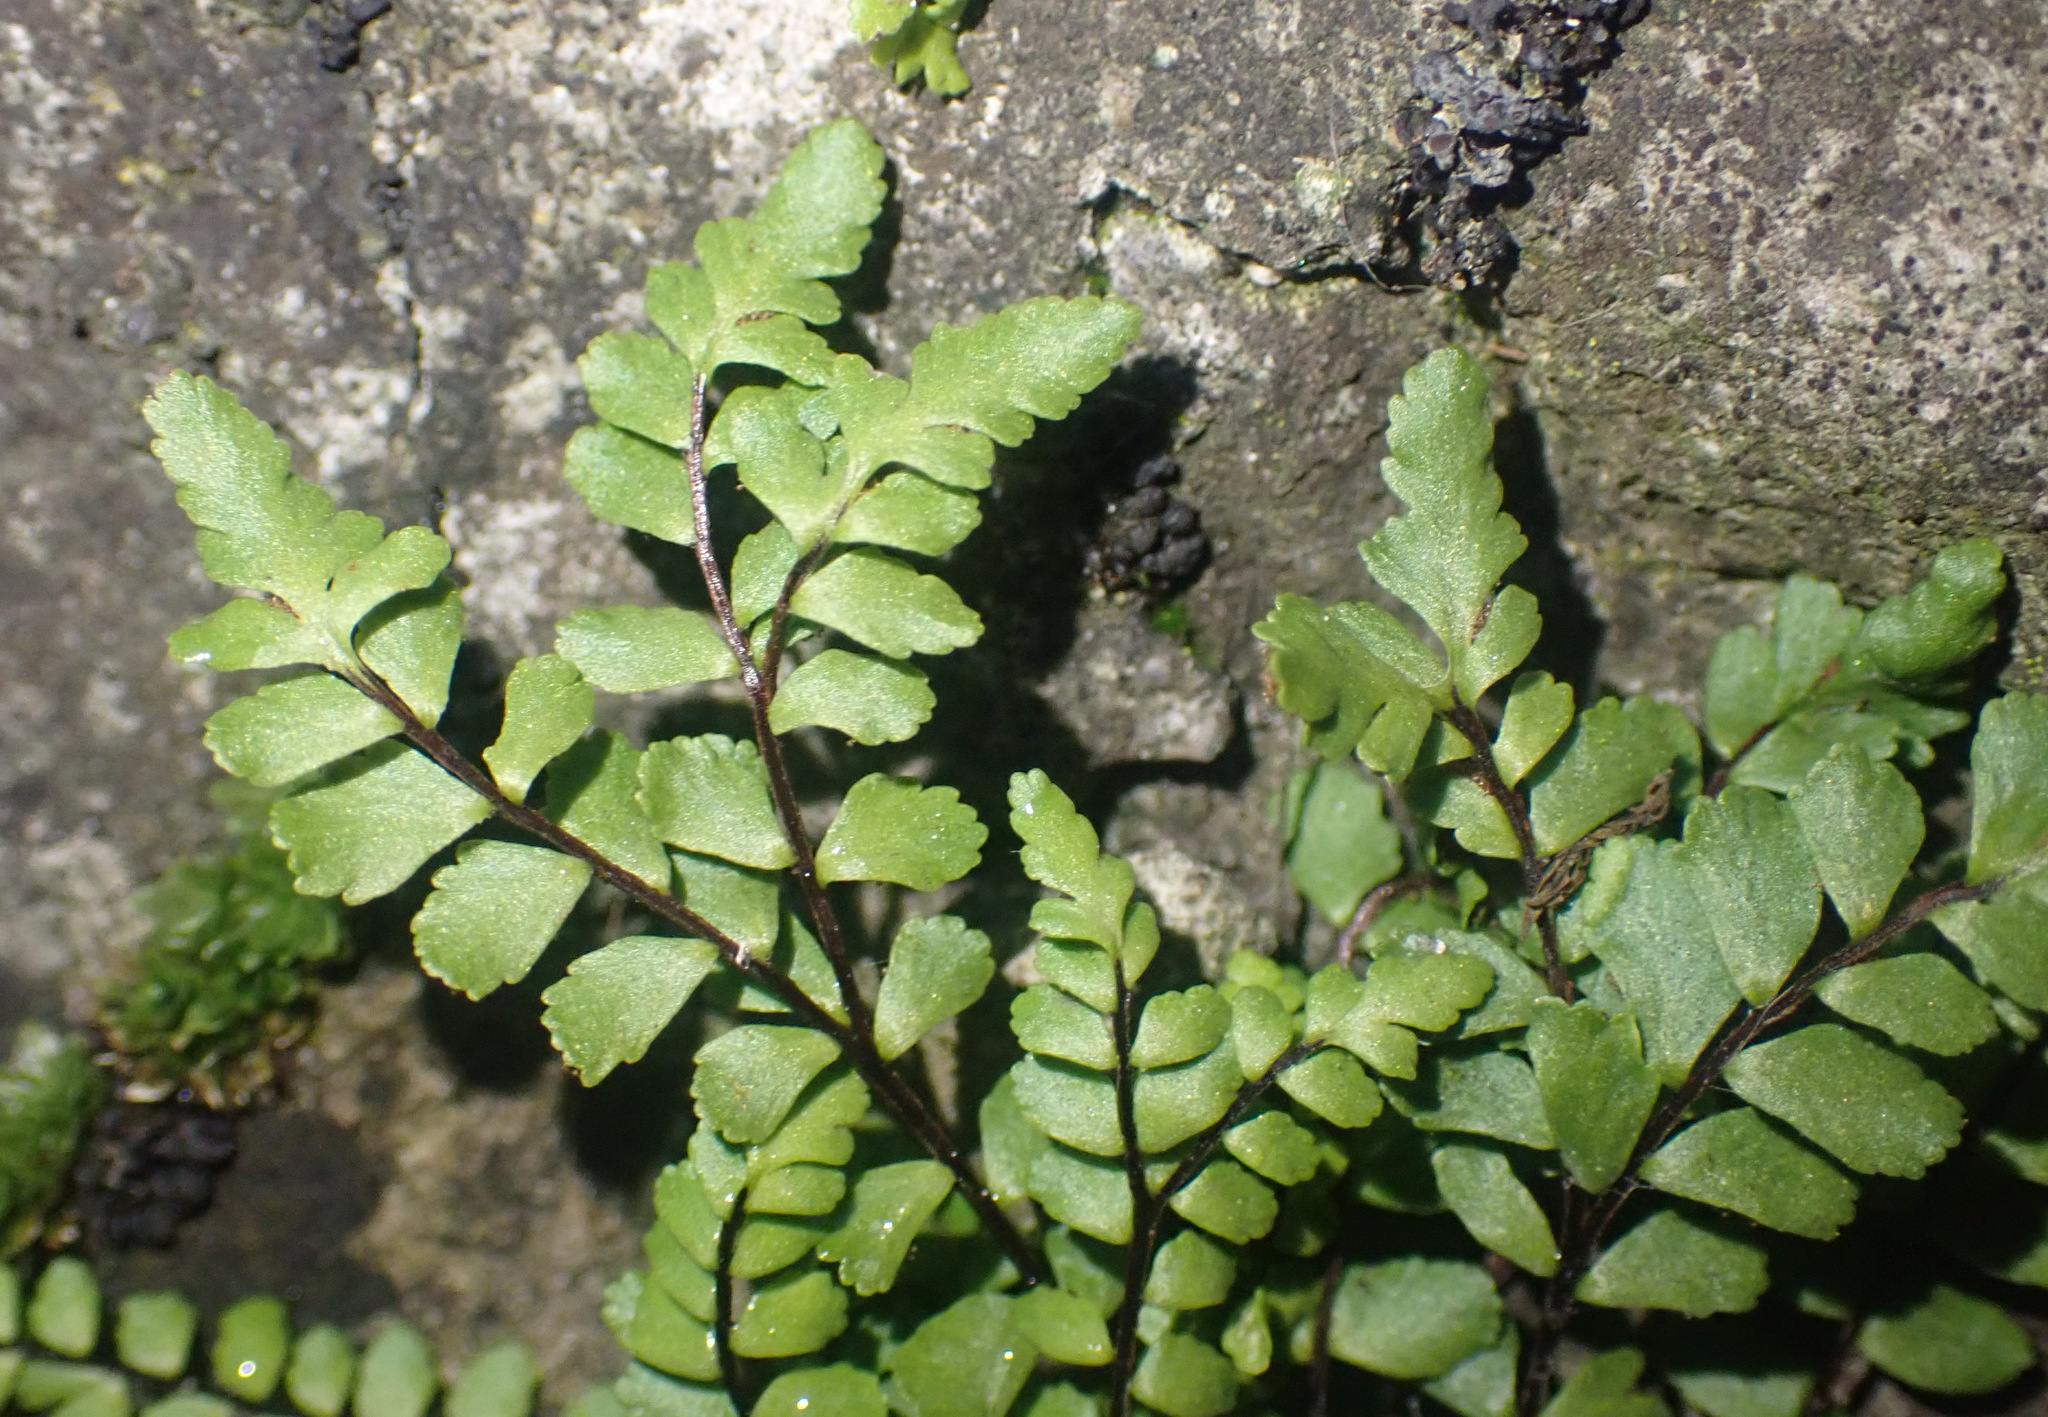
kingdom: Plantae
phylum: Tracheophyta
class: Polypodiopsida
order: Polypodiales
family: Aspleniaceae
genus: Asplenium
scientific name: Asplenium trichomanes
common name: Maidenhair spleenwort
